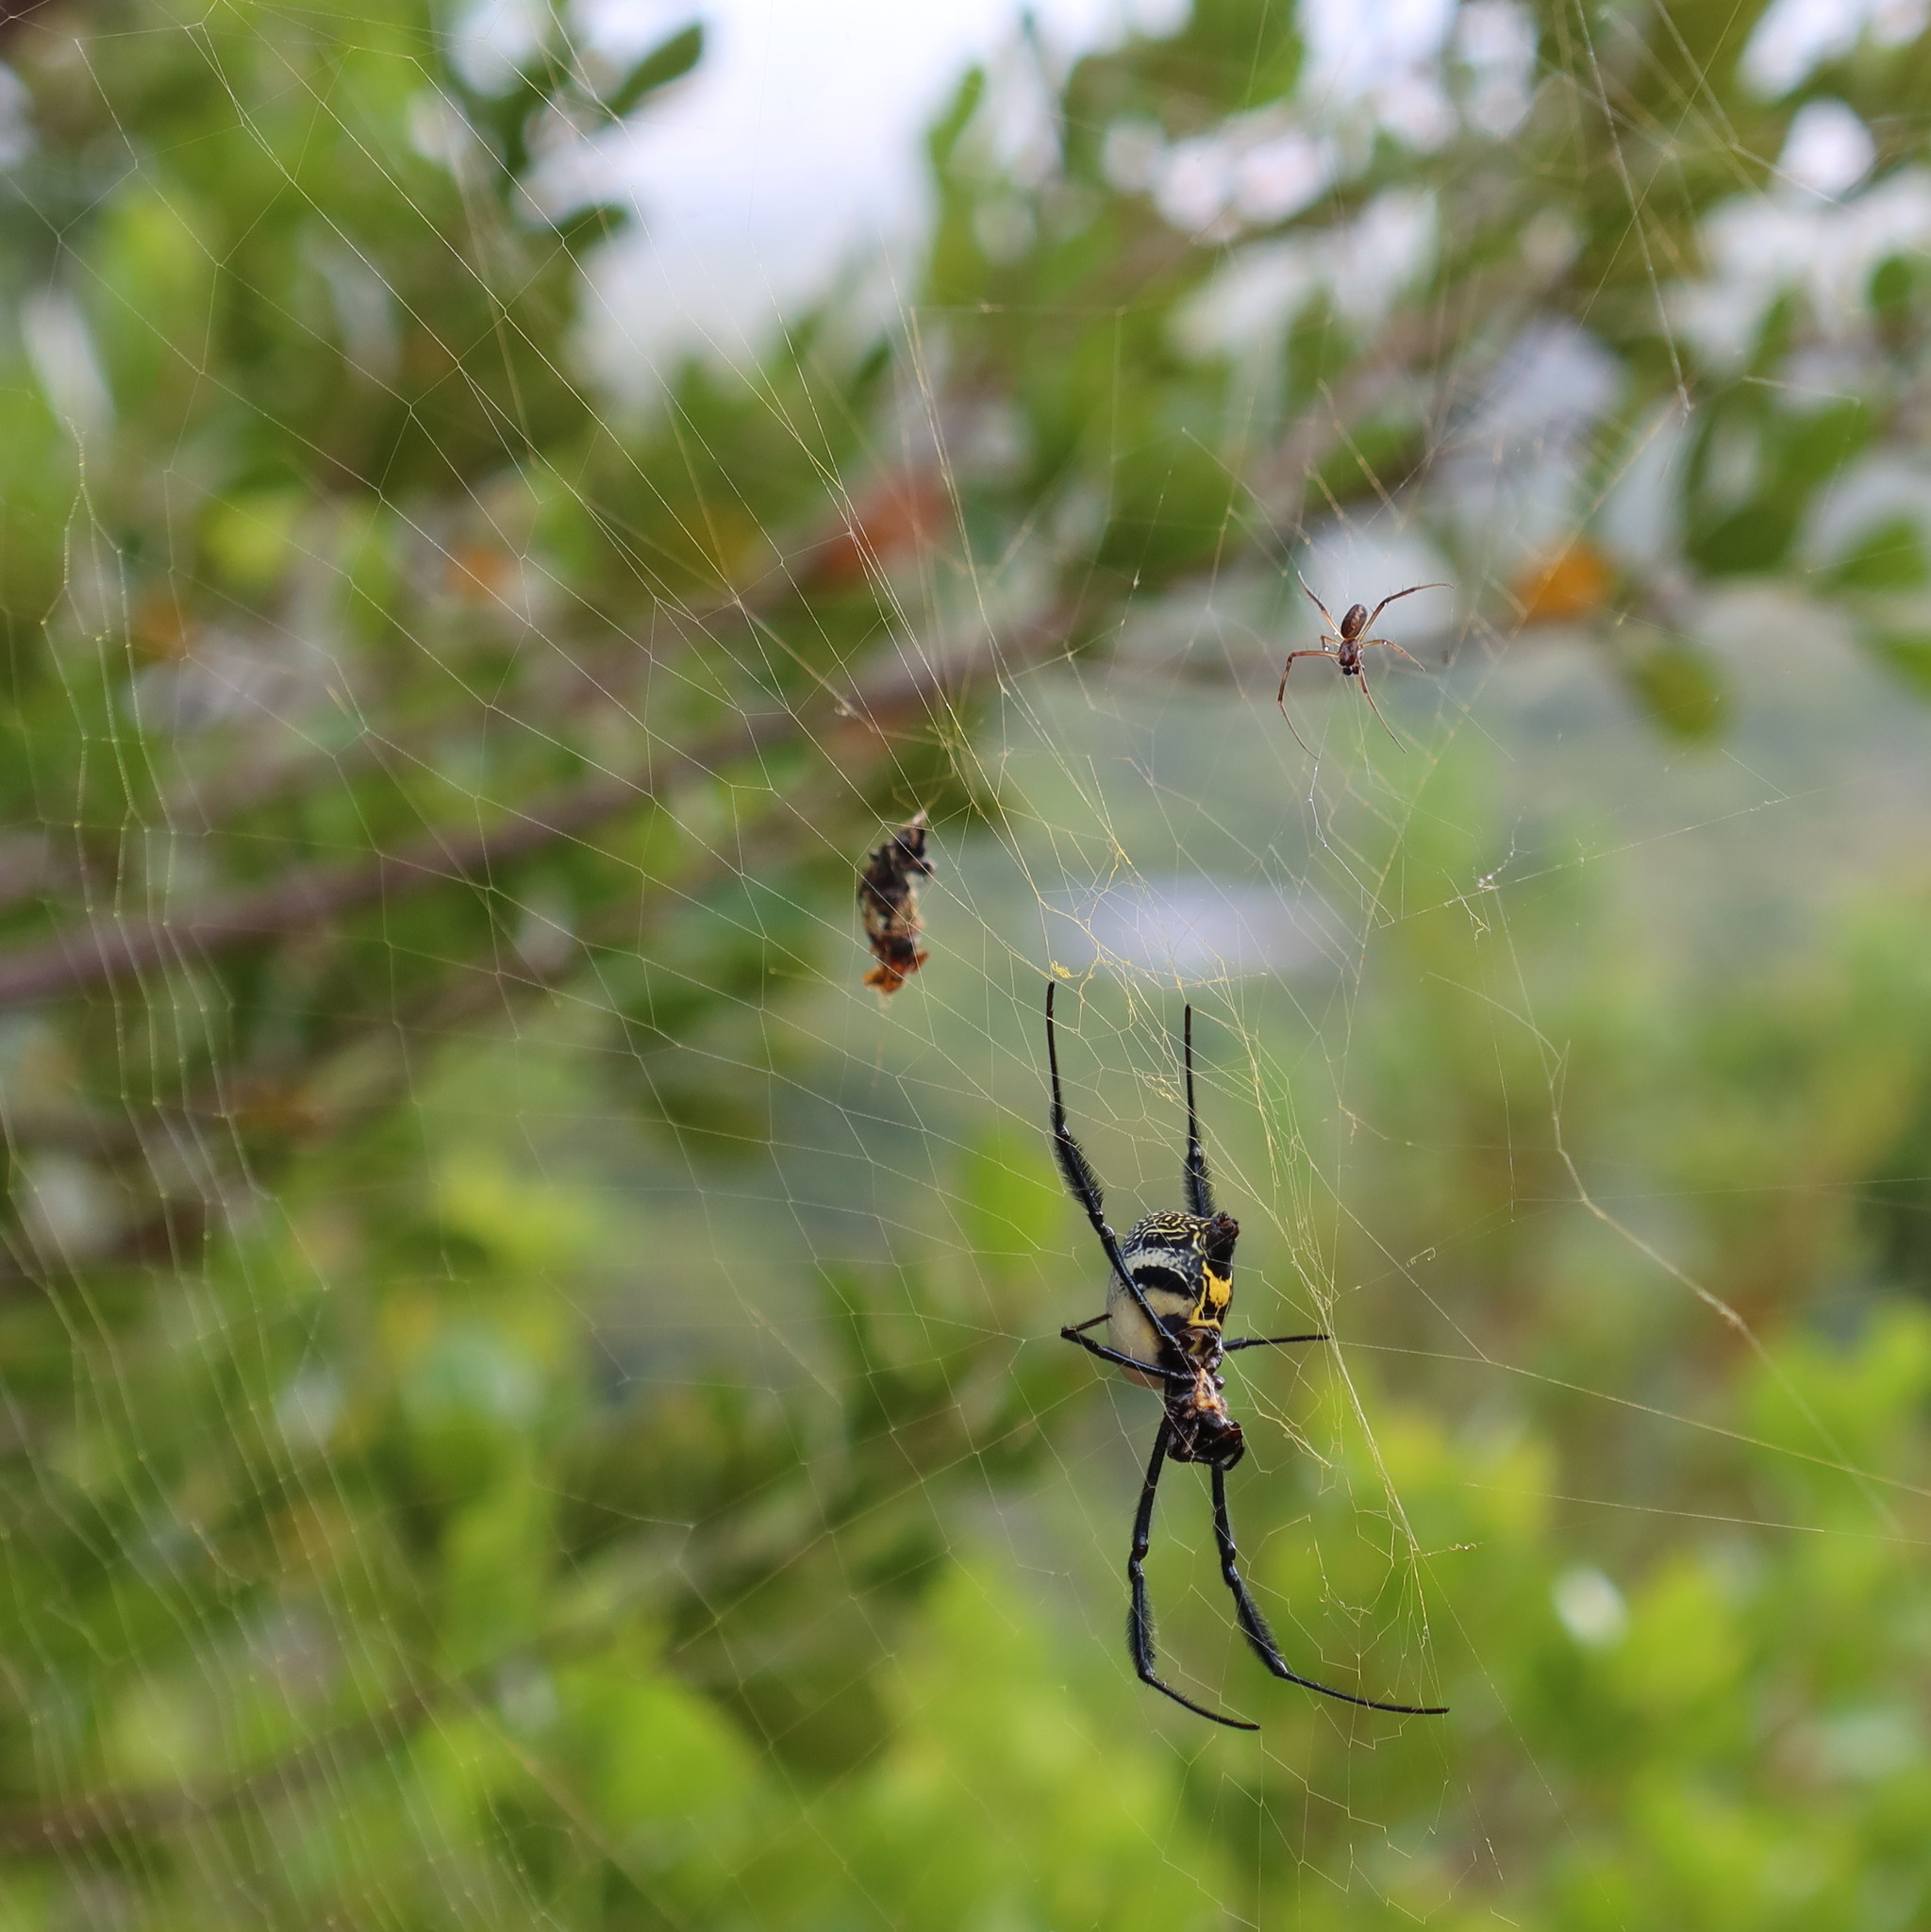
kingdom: Animalia
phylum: Arthropoda
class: Arachnida
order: Araneae
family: Araneidae
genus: Trichonephila
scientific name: Trichonephila fenestrata
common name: Hairy golden orb weaver
